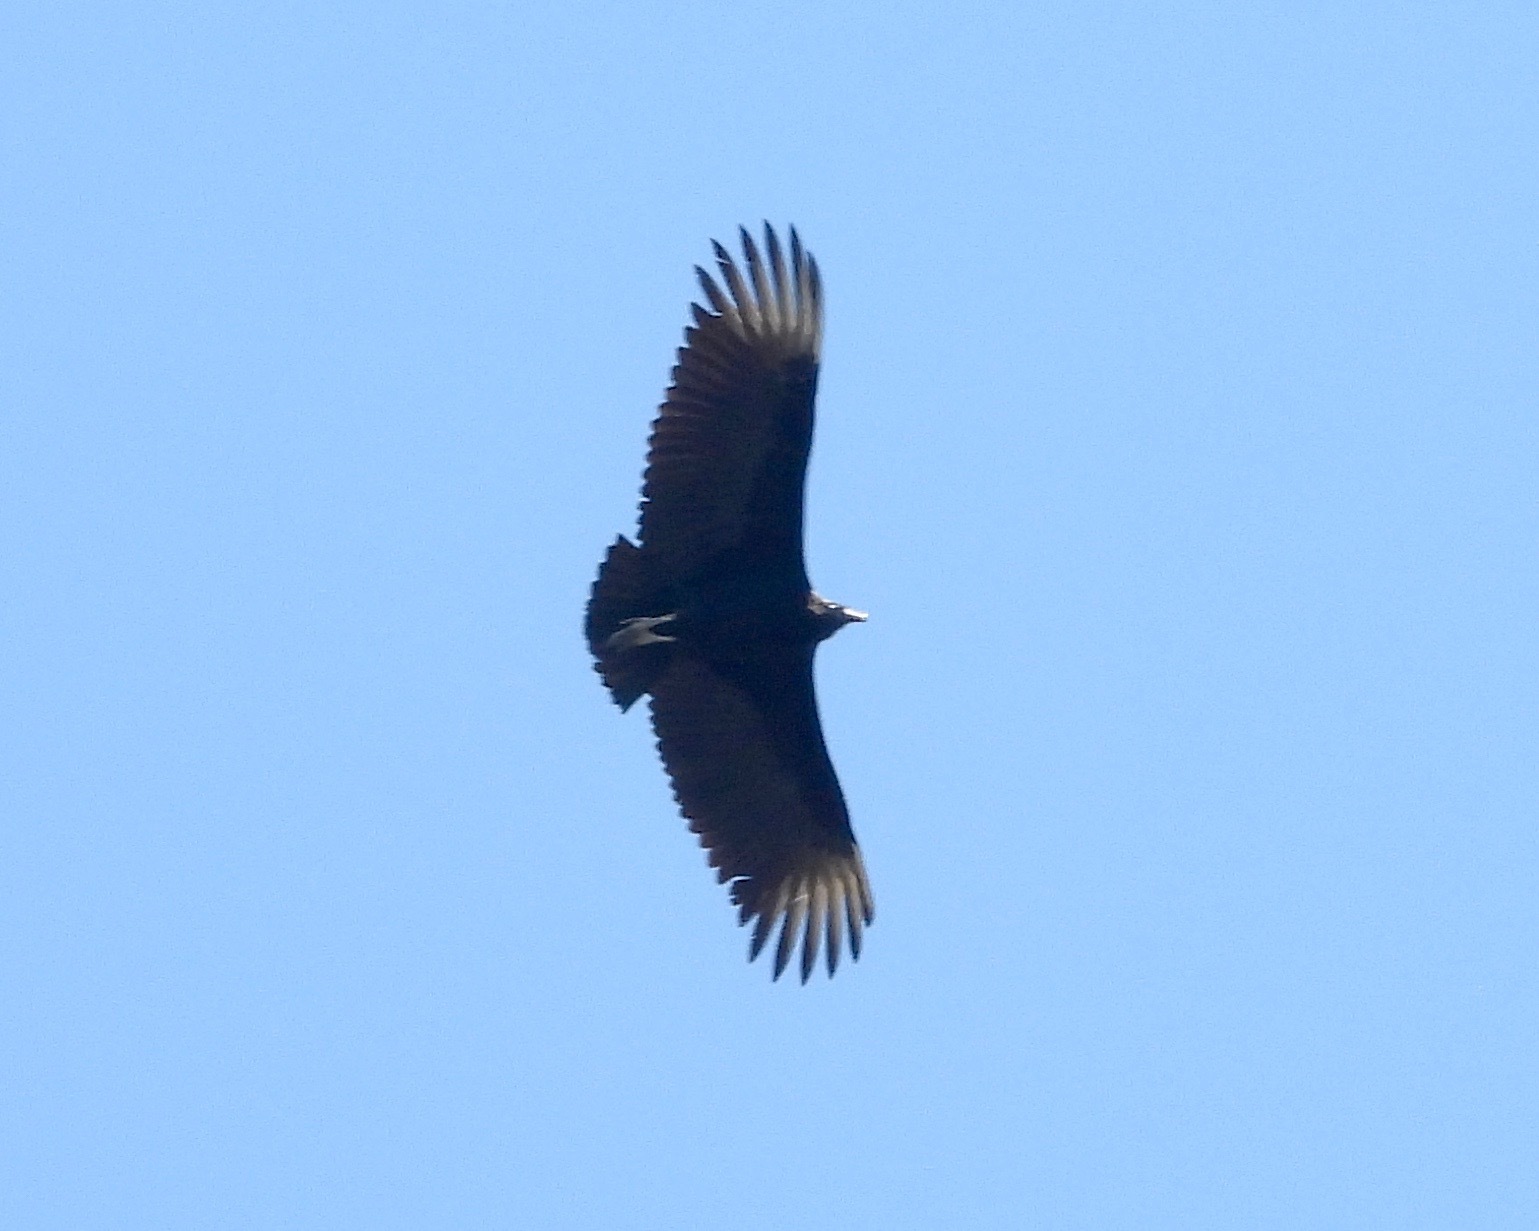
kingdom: Animalia
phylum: Chordata
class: Aves
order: Accipitriformes
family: Cathartidae
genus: Coragyps
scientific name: Coragyps atratus
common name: Black vulture
